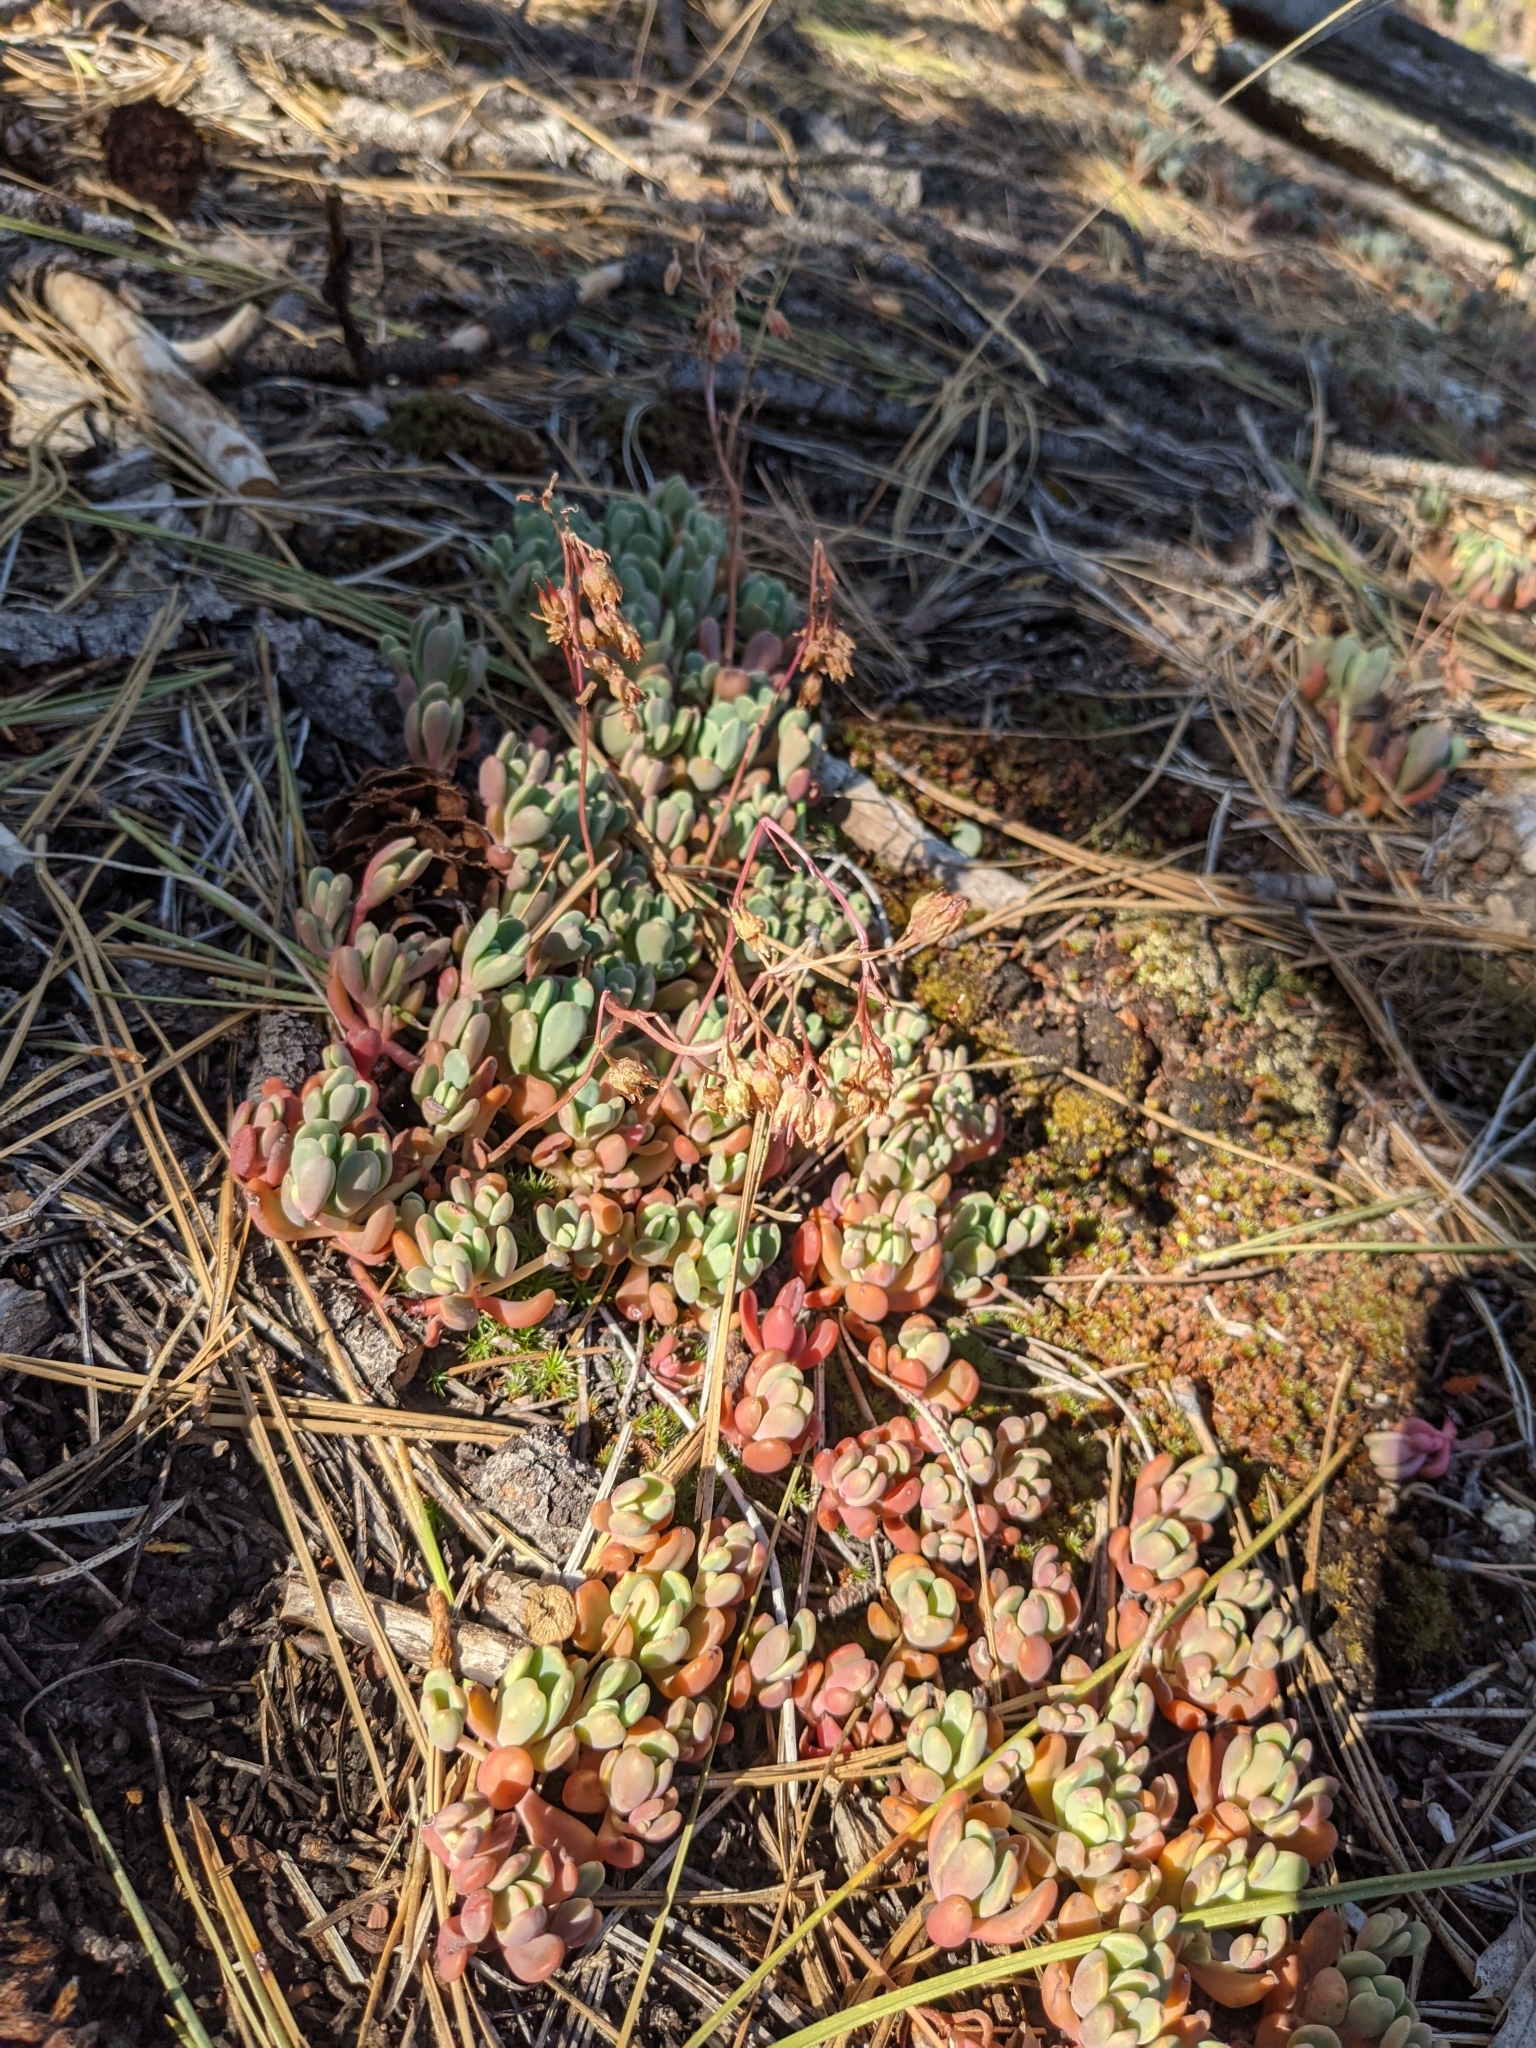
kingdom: Plantae
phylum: Tracheophyta
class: Magnoliopsida
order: Saxifragales
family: Crassulaceae
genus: Sedum
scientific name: Sedum obtusatum
